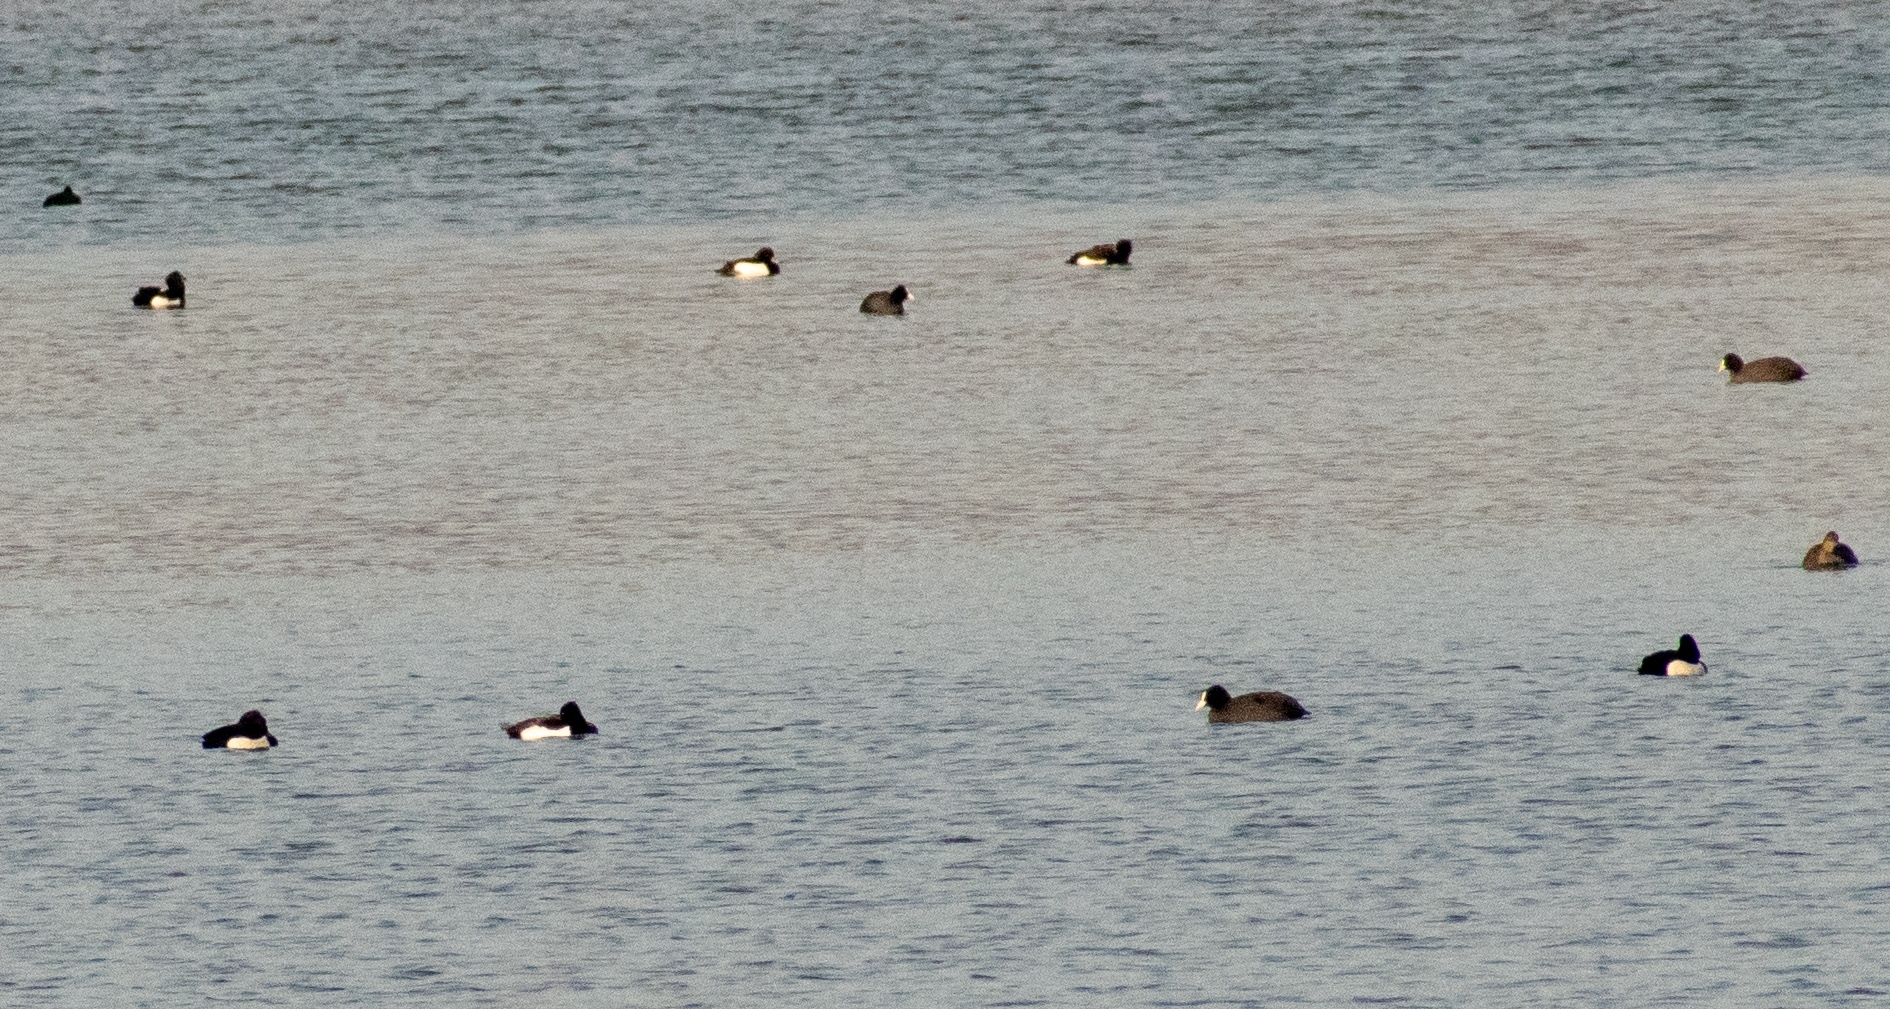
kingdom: Animalia
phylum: Chordata
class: Aves
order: Anseriformes
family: Anatidae
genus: Aythya
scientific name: Aythya fuligula
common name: Tufted duck
